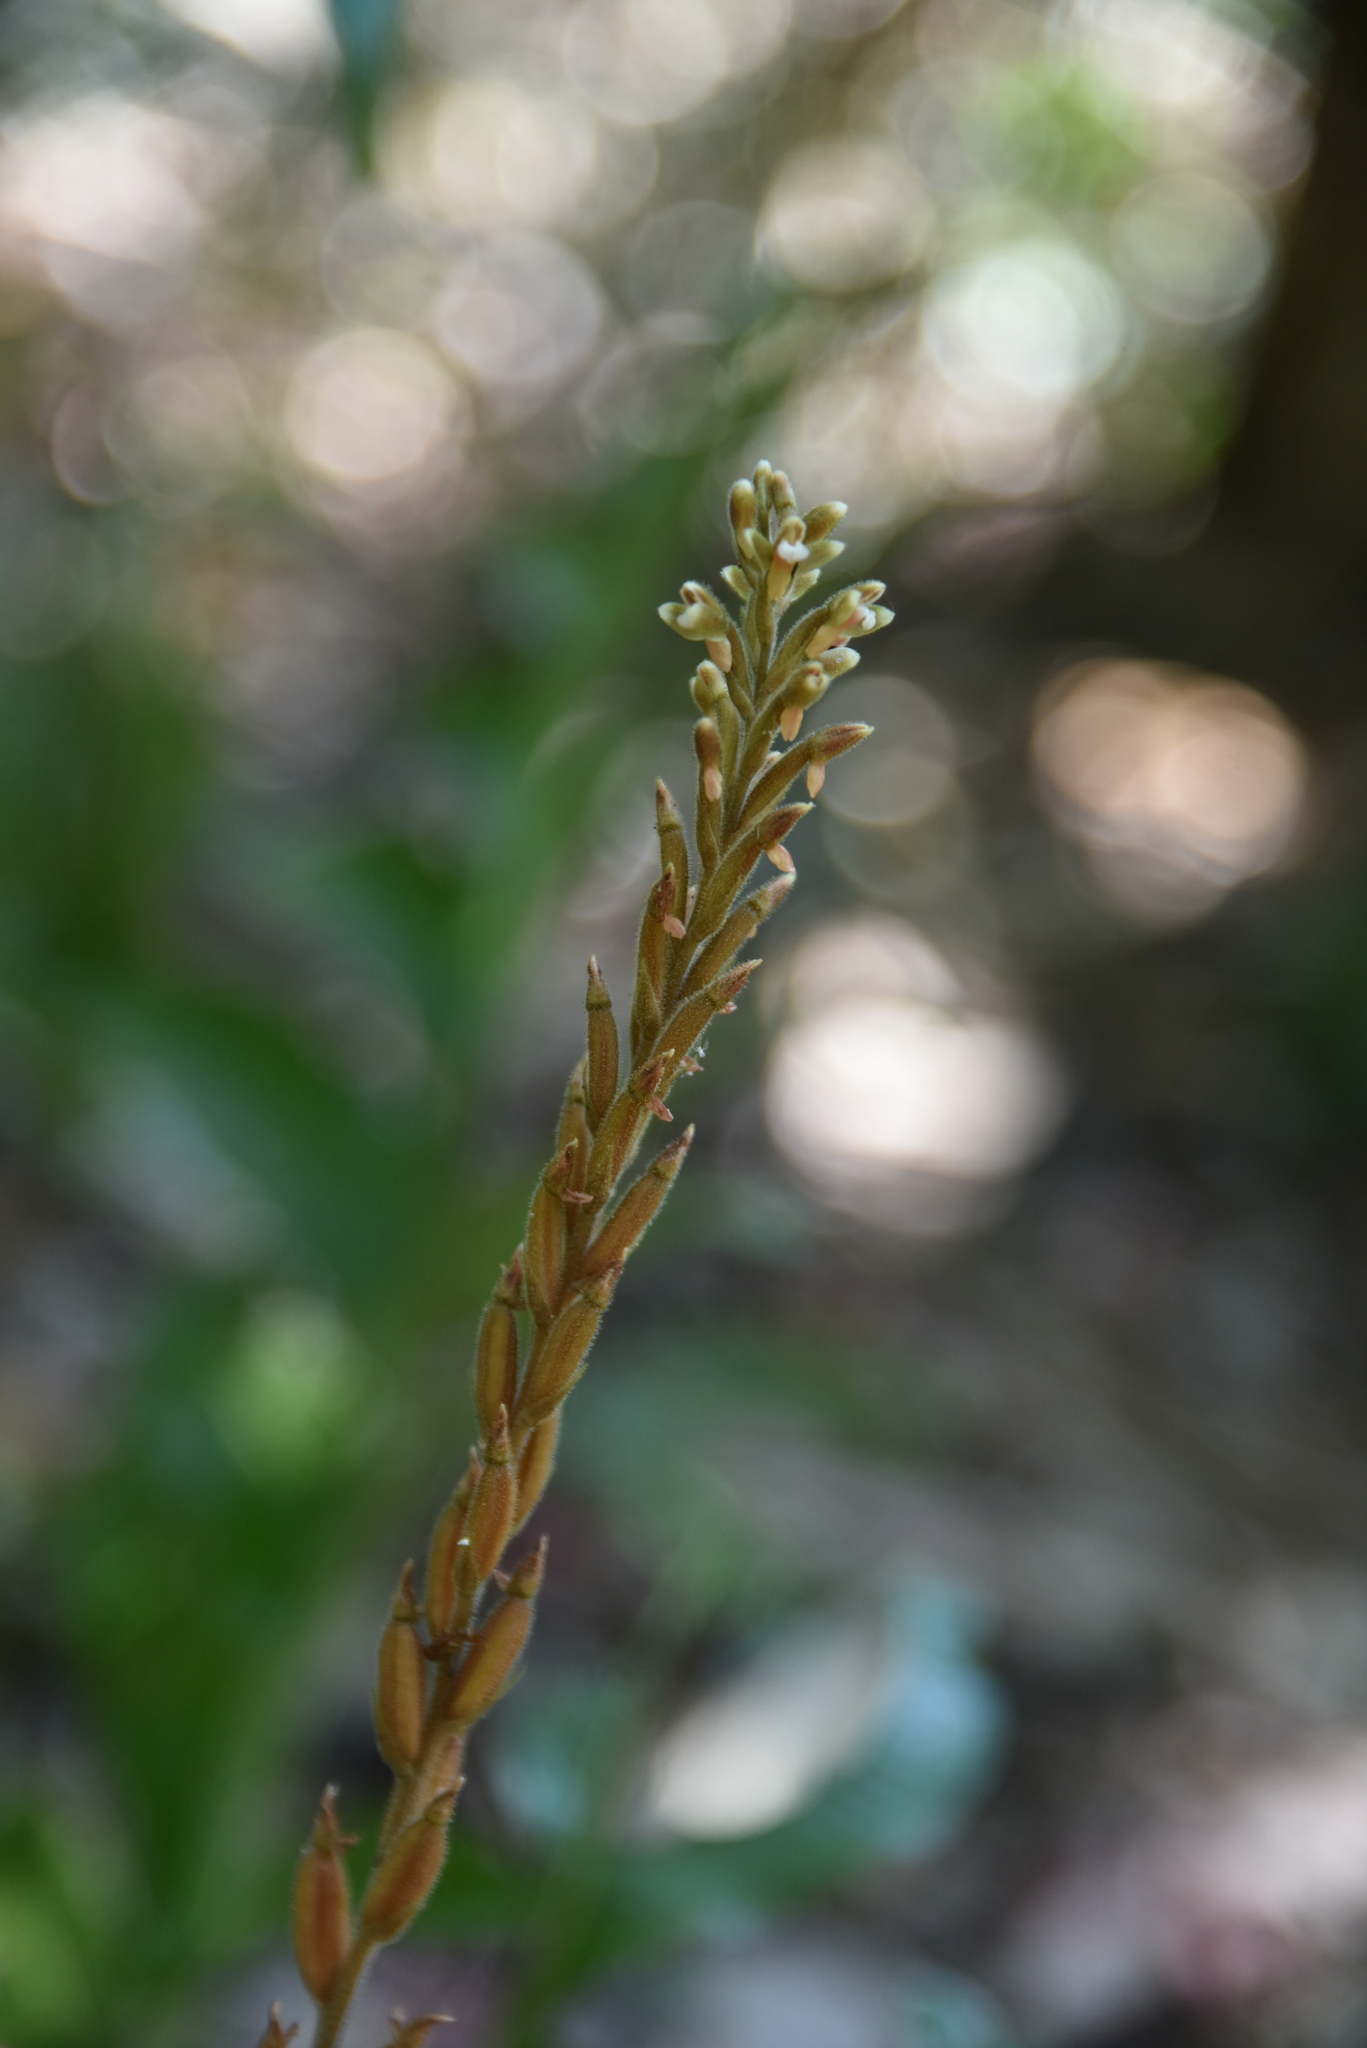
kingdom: Plantae
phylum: Tracheophyta
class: Liliopsida
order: Asparagales
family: Orchidaceae
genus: Erythrodes
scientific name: Erythrodes chinensis
